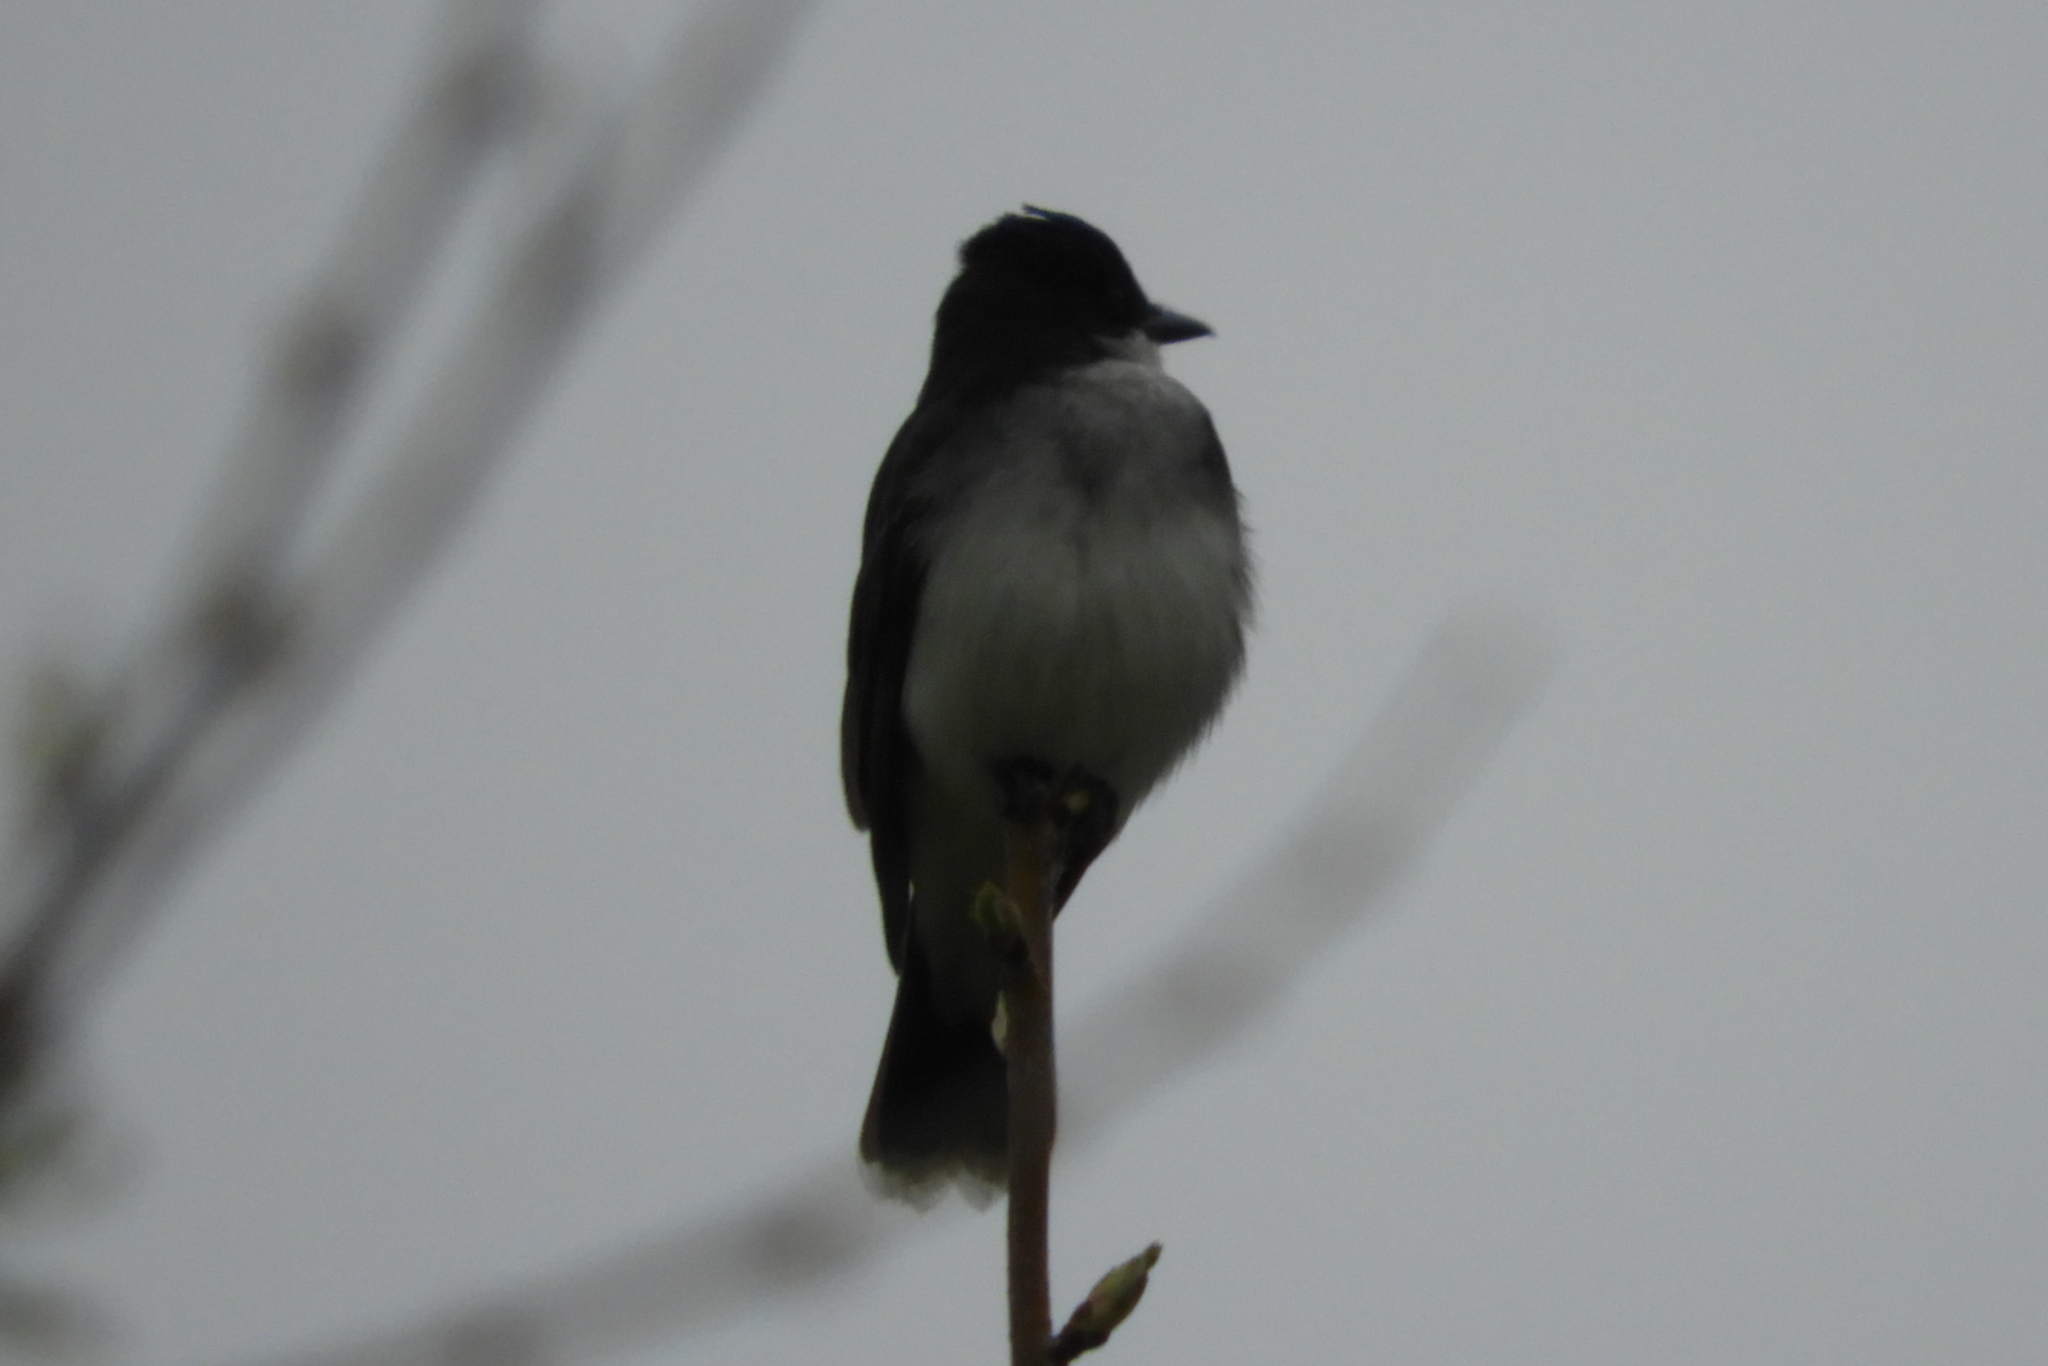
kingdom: Animalia
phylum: Chordata
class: Aves
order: Passeriformes
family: Tyrannidae
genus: Tyrannus
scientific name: Tyrannus tyrannus
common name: Eastern kingbird
